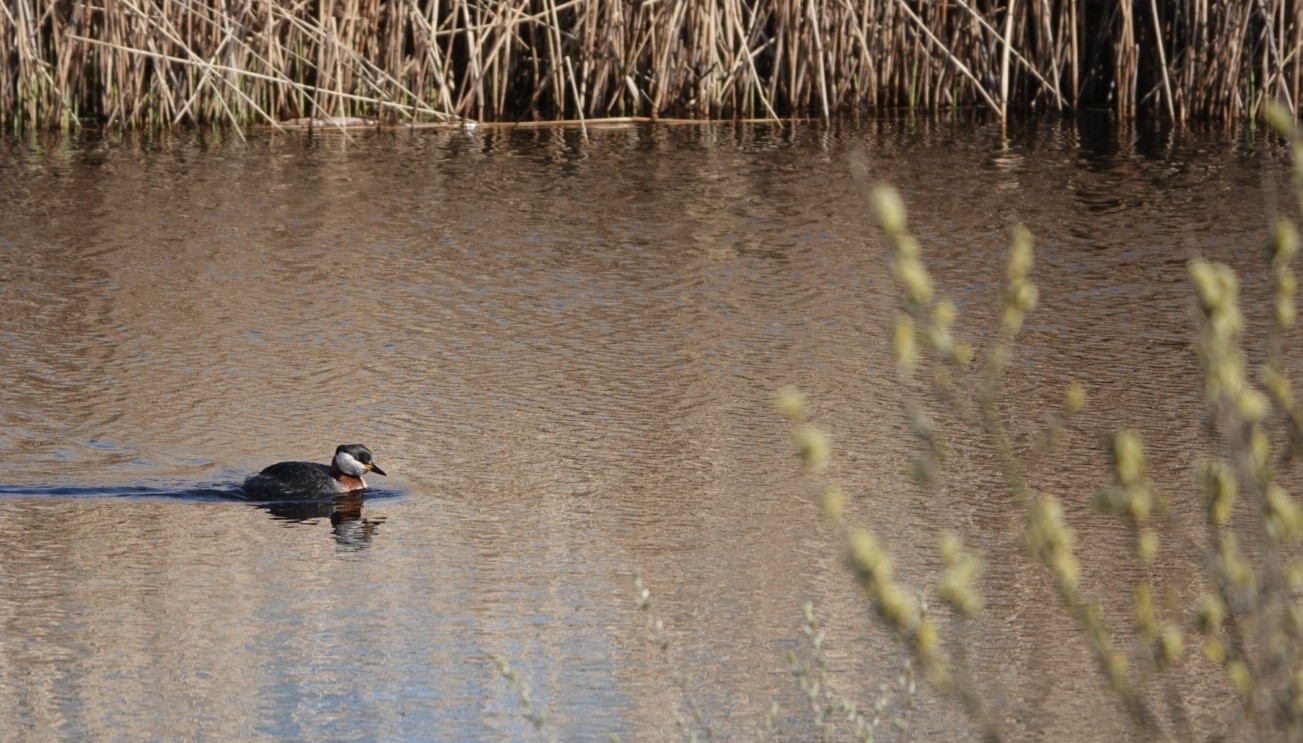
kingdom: Animalia
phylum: Chordata
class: Aves
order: Podicipediformes
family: Podicipedidae
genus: Podiceps
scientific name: Podiceps grisegena
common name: Red-necked grebe
